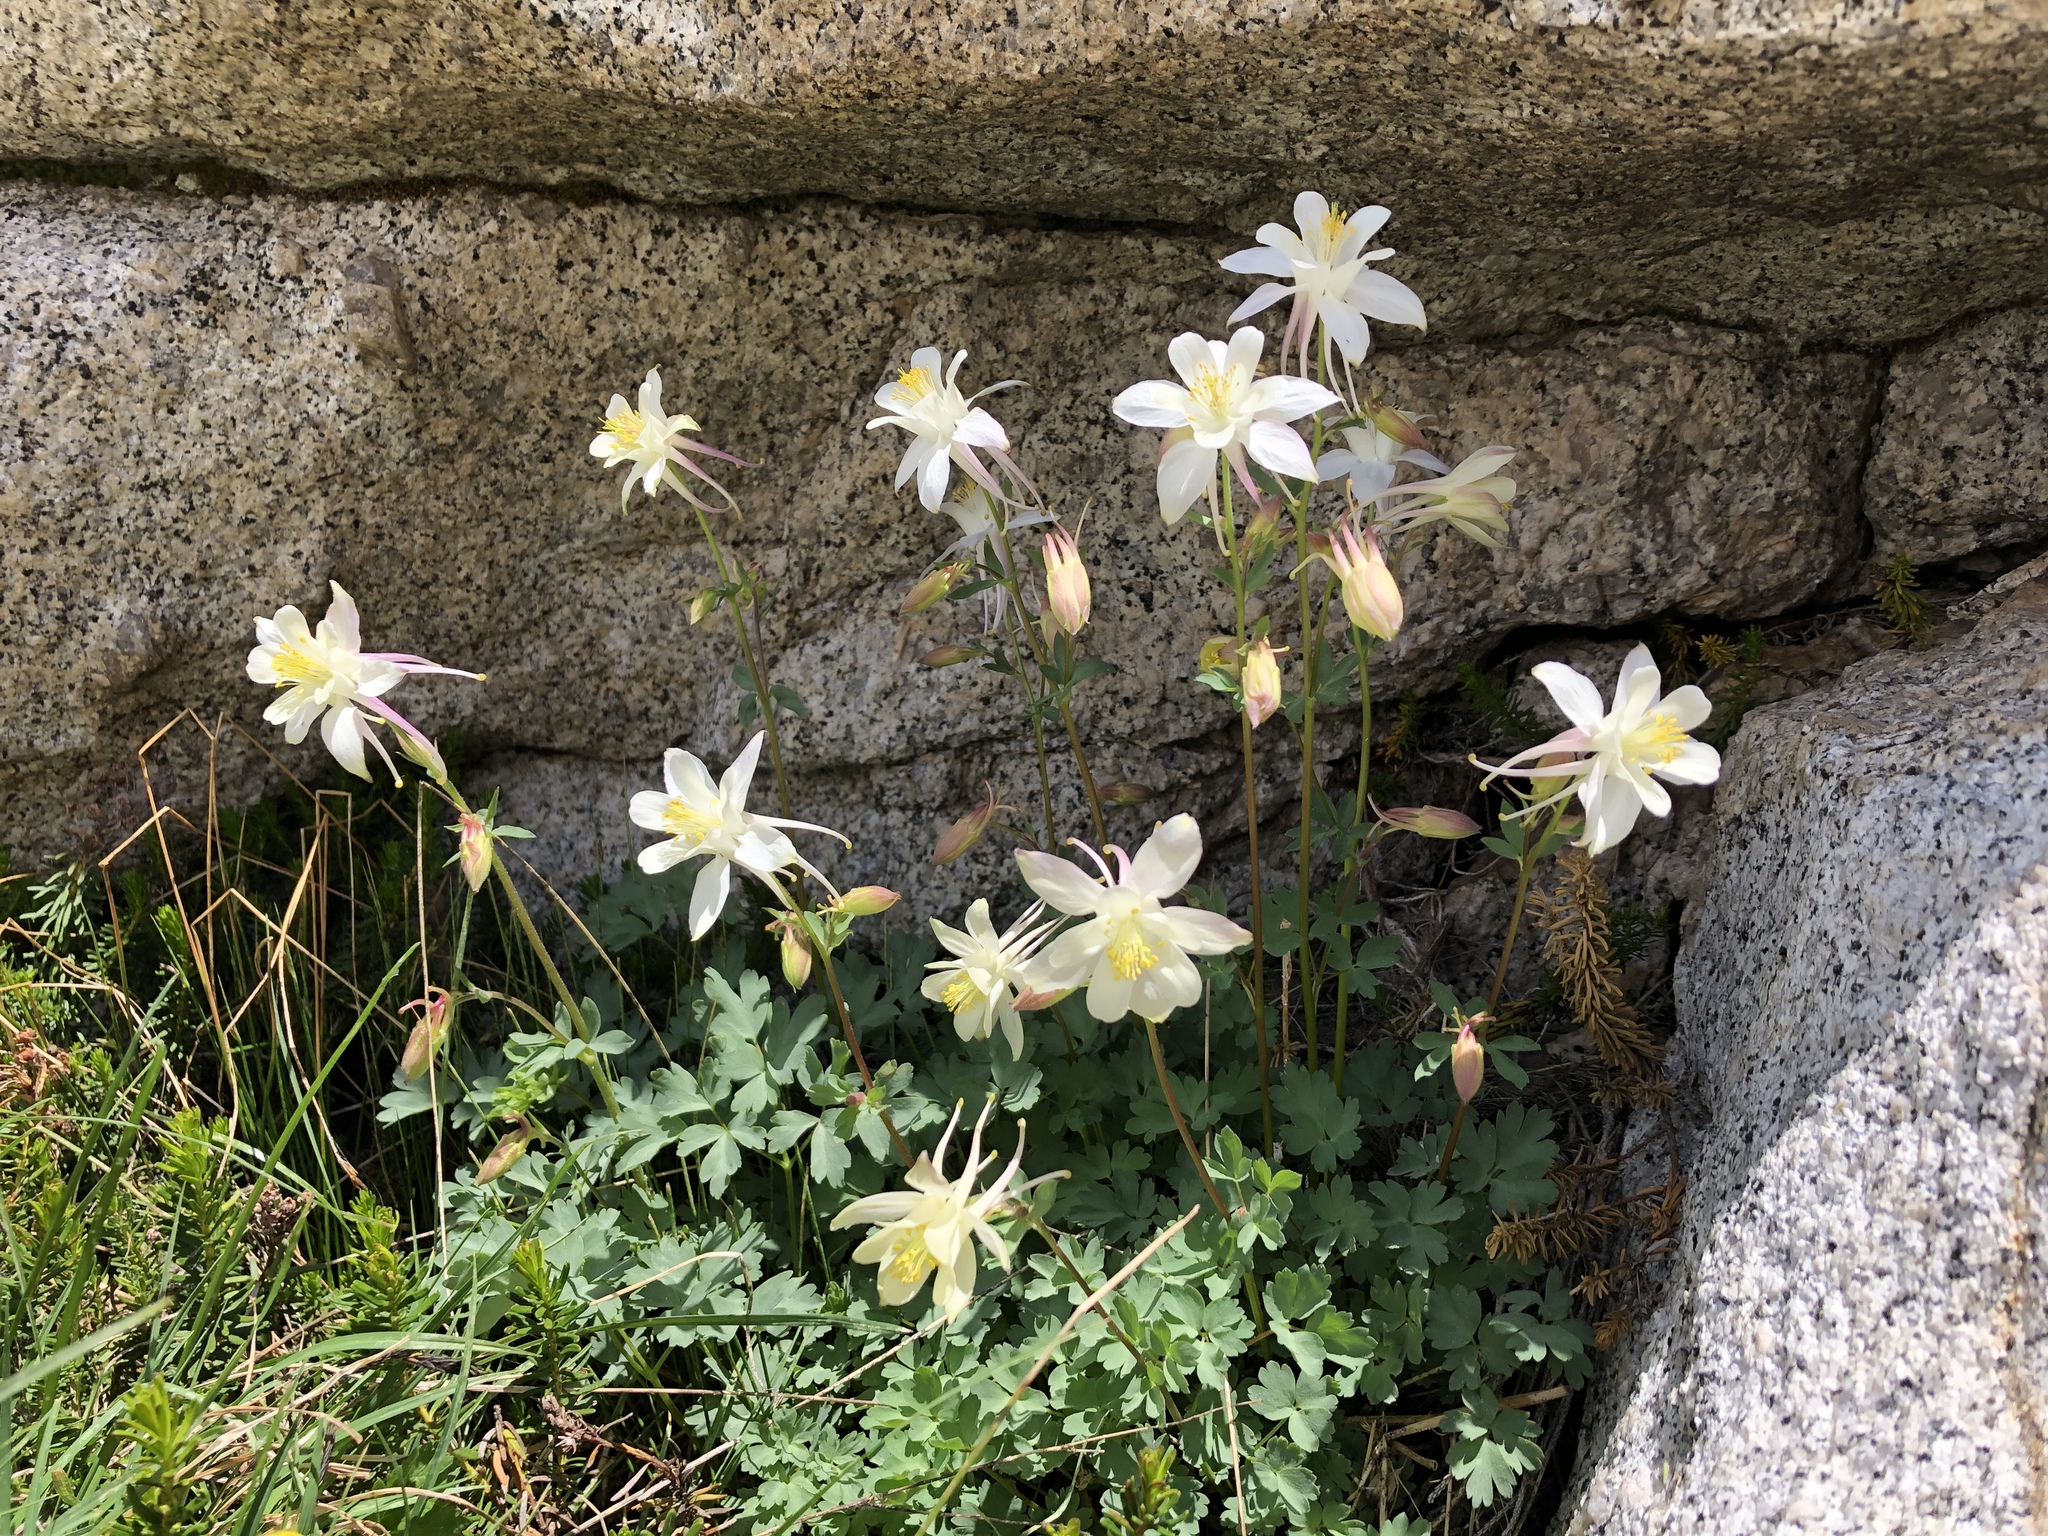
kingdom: Plantae
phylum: Tracheophyta
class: Magnoliopsida
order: Ranunculales
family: Ranunculaceae
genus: Aquilegia
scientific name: Aquilegia pubescens
